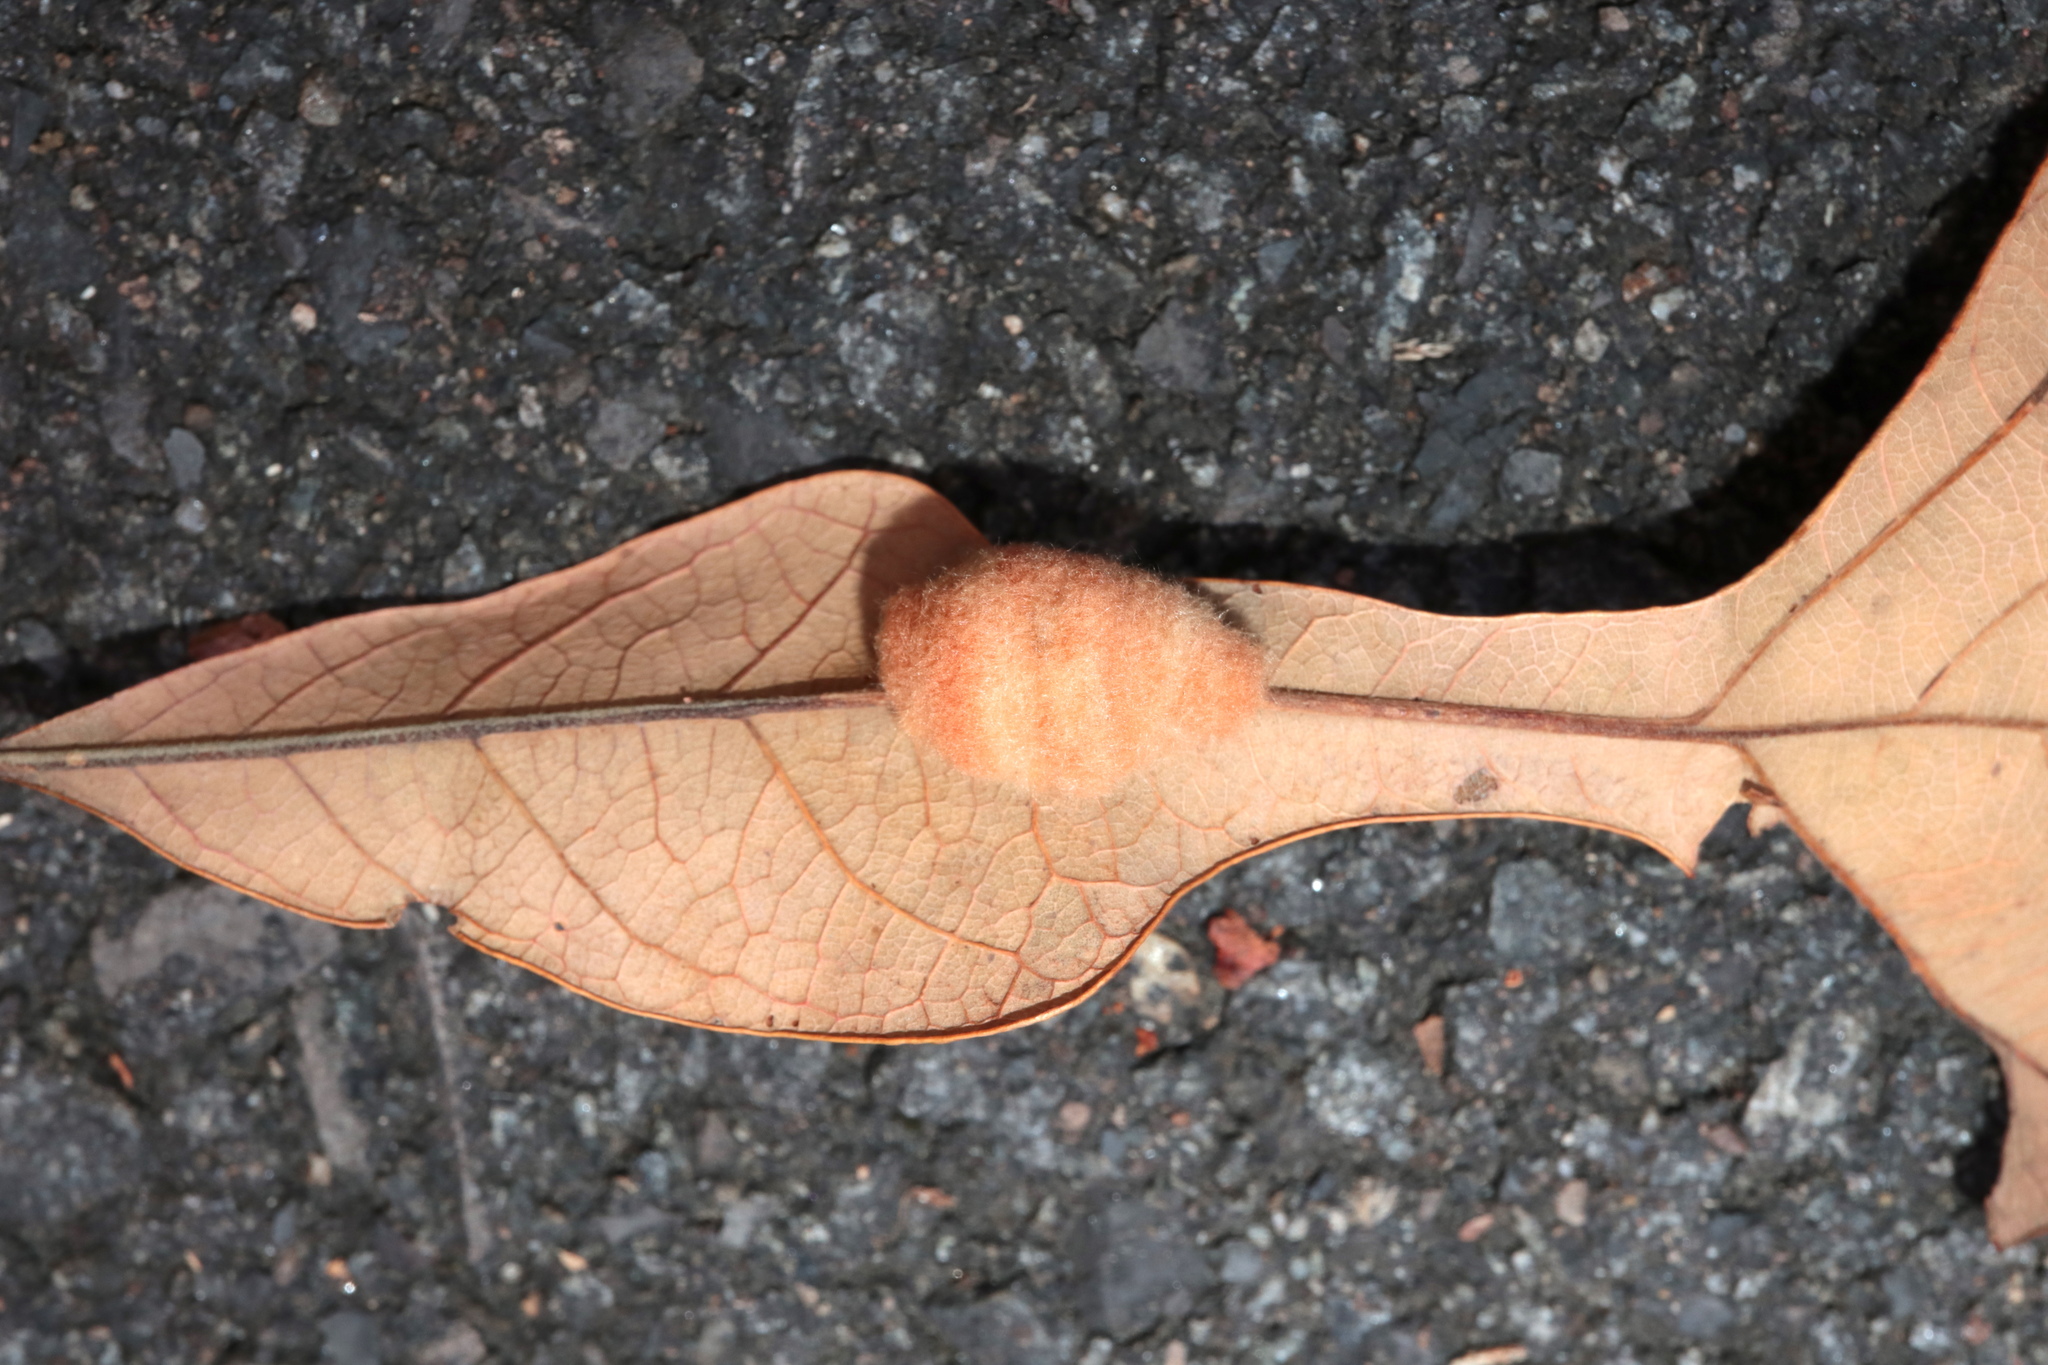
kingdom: Animalia
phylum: Arthropoda
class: Insecta
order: Hymenoptera
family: Cynipidae
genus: Andricus
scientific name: Andricus Druon pattoni
